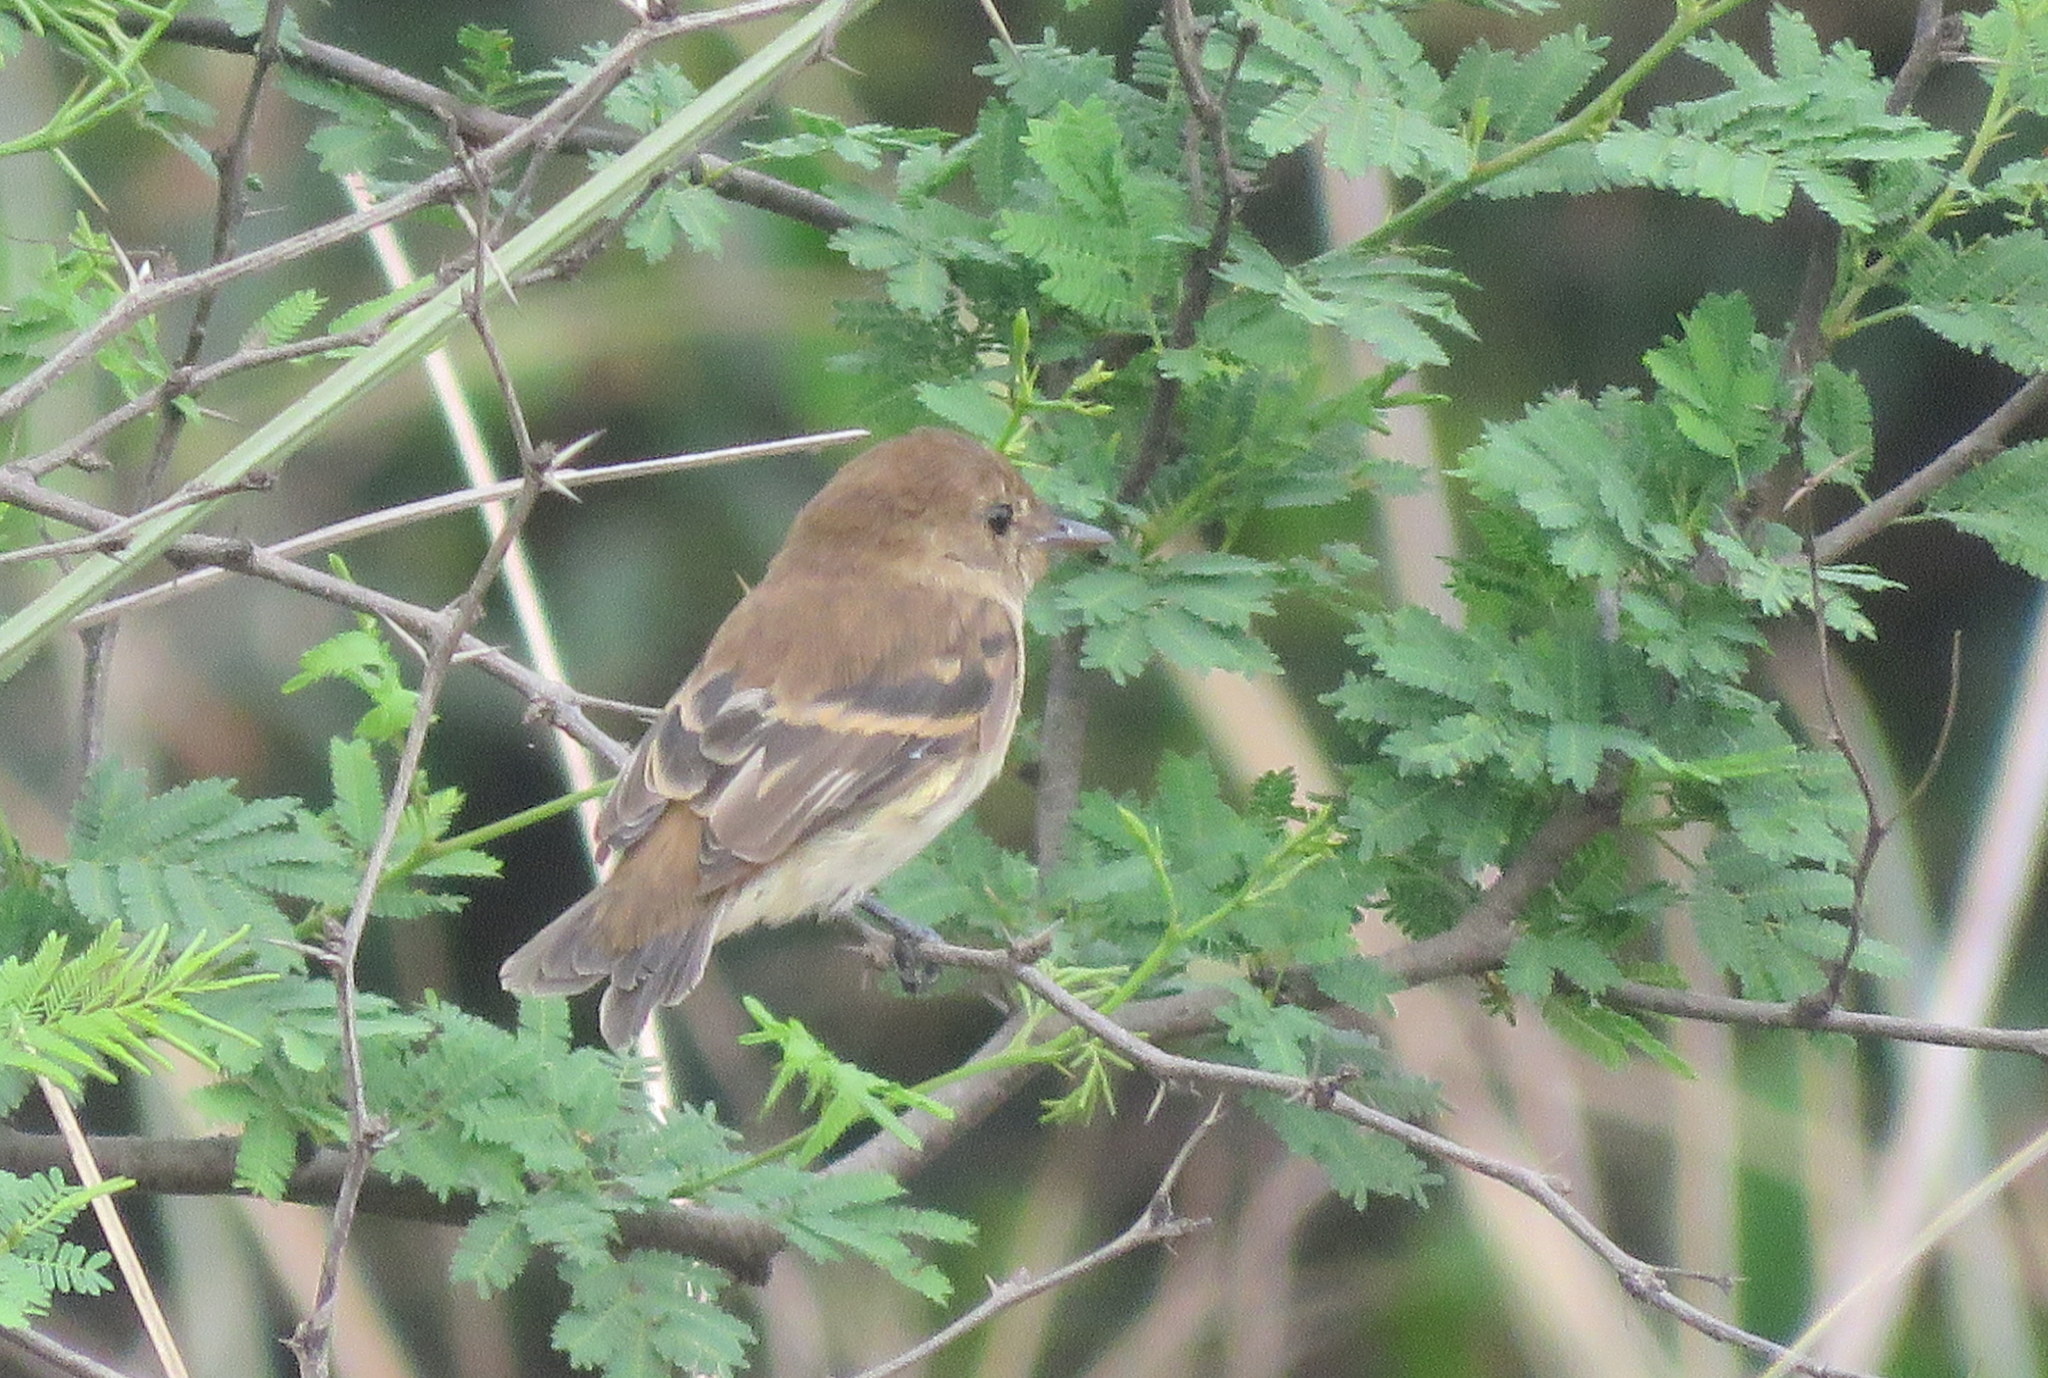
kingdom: Animalia
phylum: Chordata
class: Aves
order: Passeriformes
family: Tyrannidae
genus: Myiophobus
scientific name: Myiophobus fasciatus
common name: Bran-colored flycatcher
